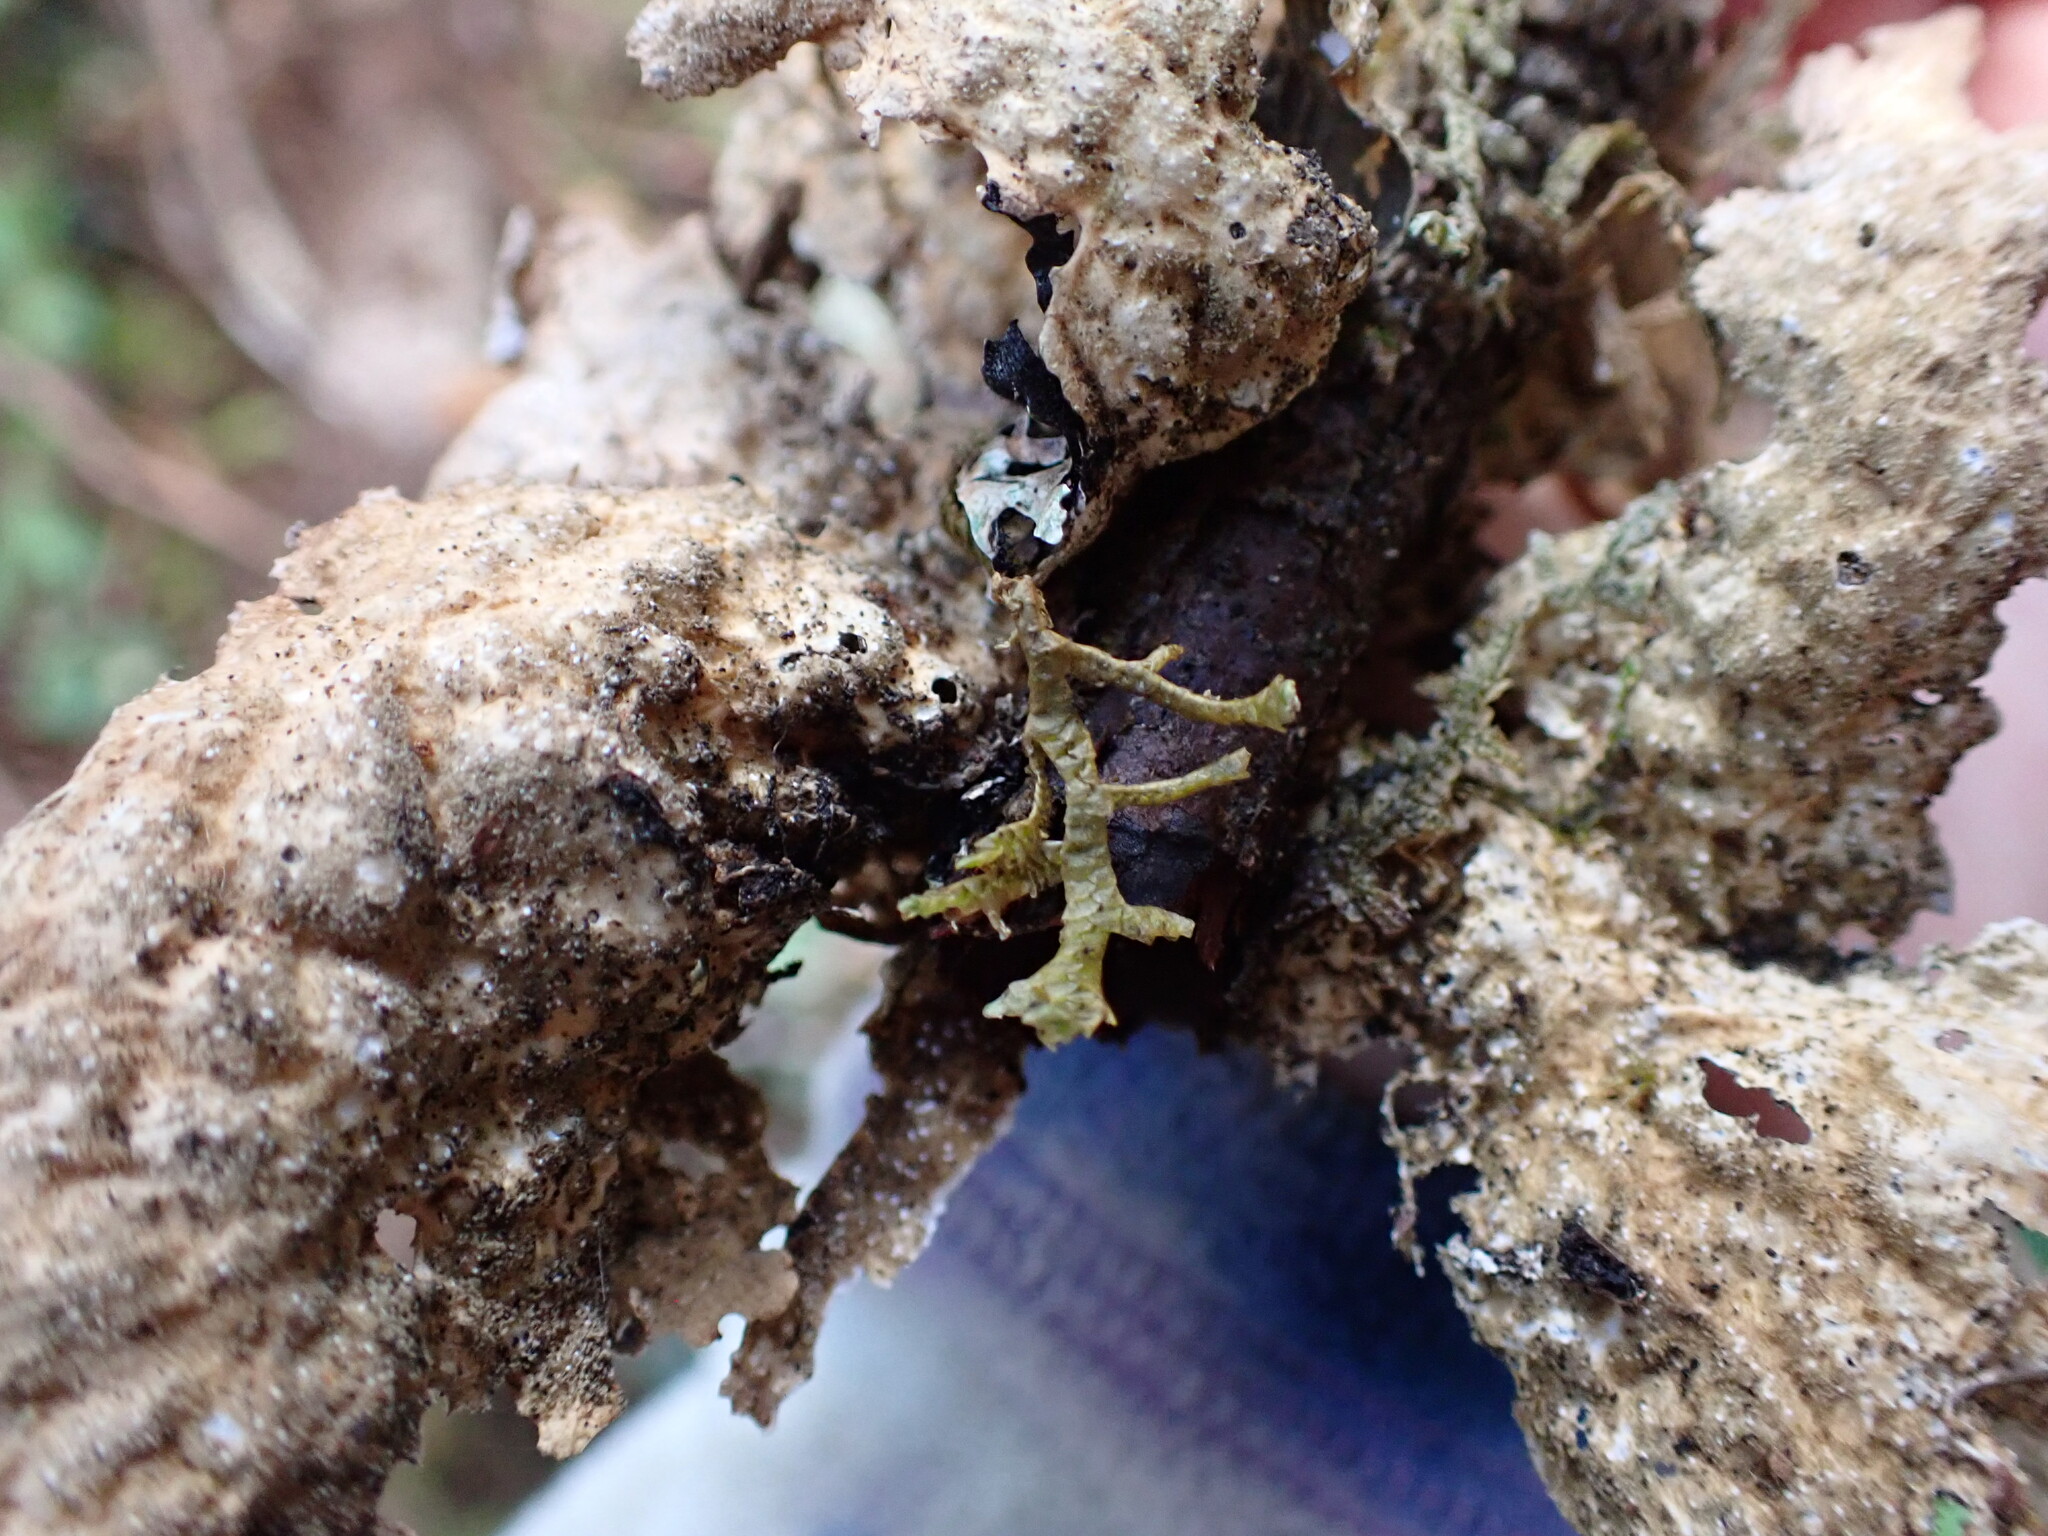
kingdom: Plantae
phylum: Marchantiophyta
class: Jungermanniopsida
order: Porellales
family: Porellaceae
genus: Porella
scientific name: Porella navicularis
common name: Tree ruffle liverwort
